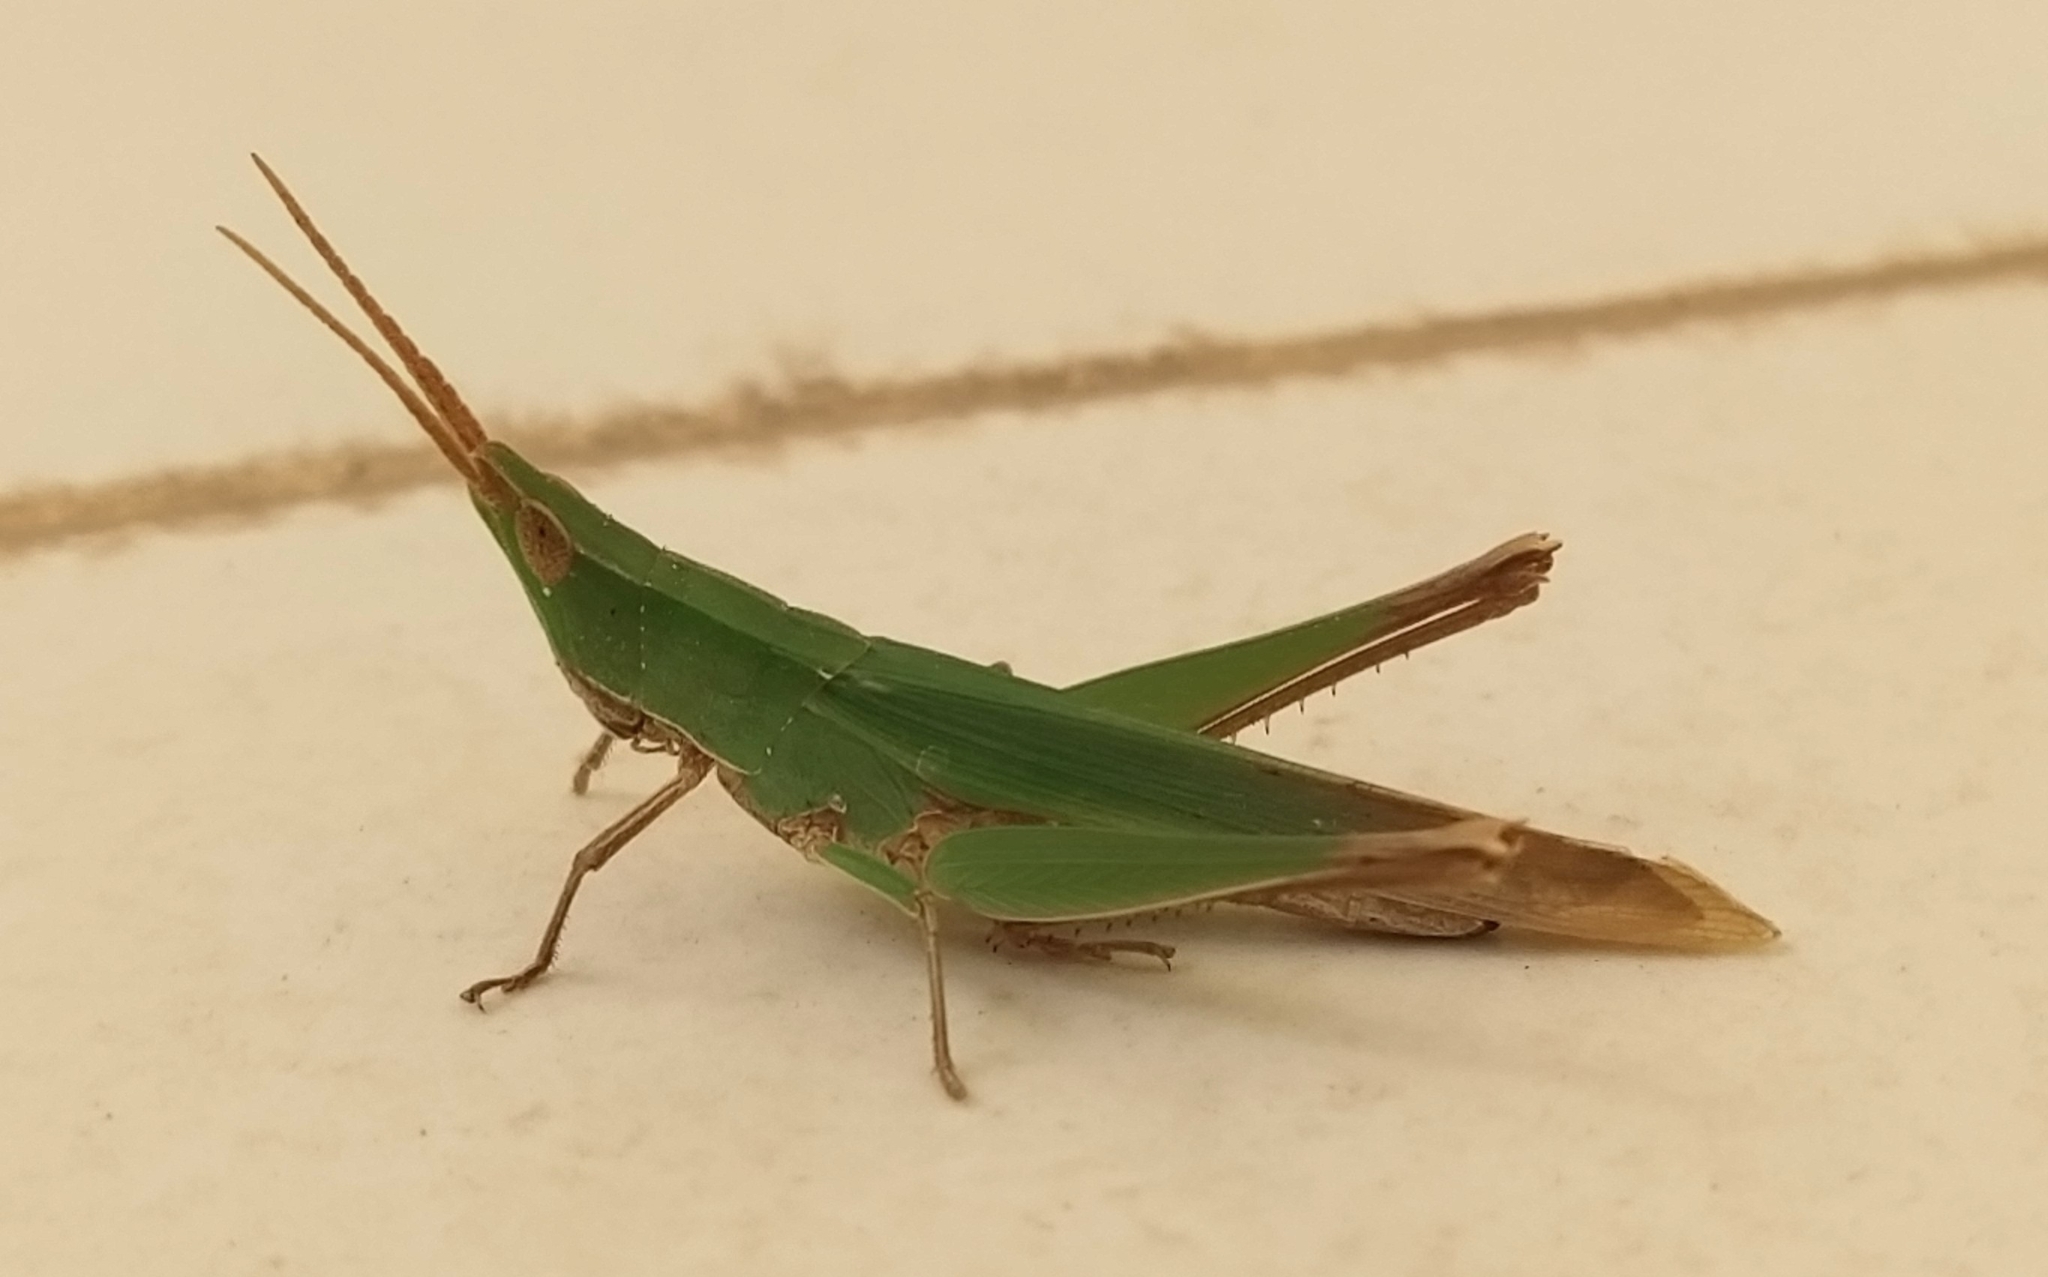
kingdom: Animalia
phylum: Arthropoda
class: Insecta
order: Orthoptera
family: Acrididae
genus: Allotruxalis
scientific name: Allotruxalis gracilis
